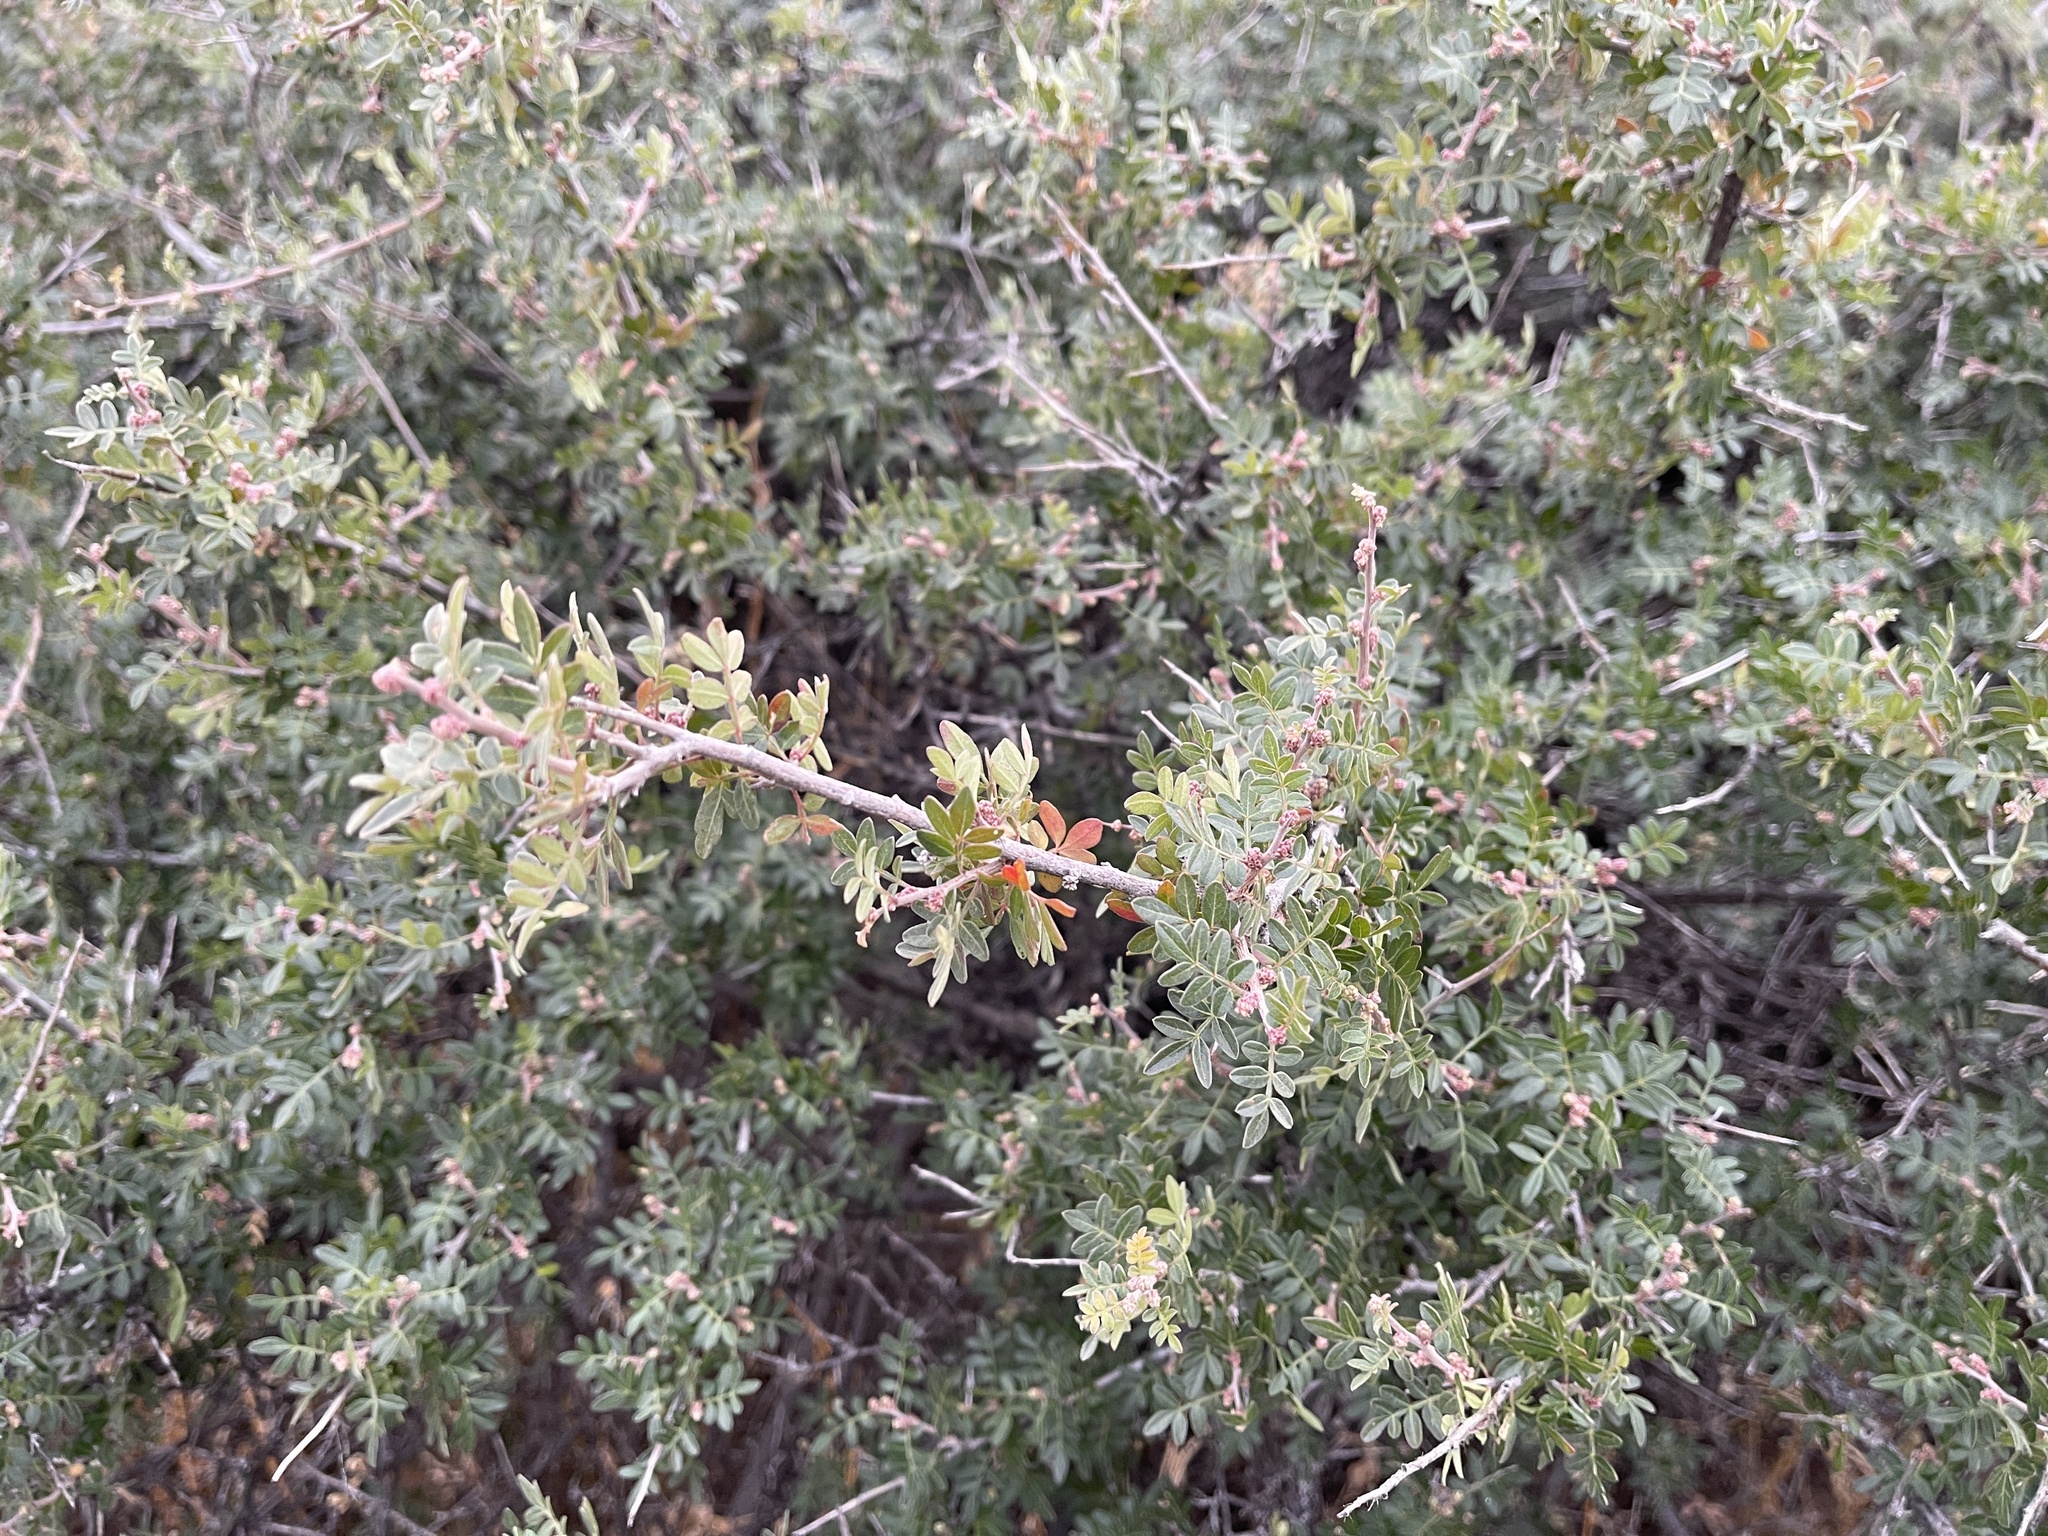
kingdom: Plantae
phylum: Tracheophyta
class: Magnoliopsida
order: Sapindales
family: Anacardiaceae
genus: Rhus
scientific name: Rhus microphylla
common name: Desert sumac
